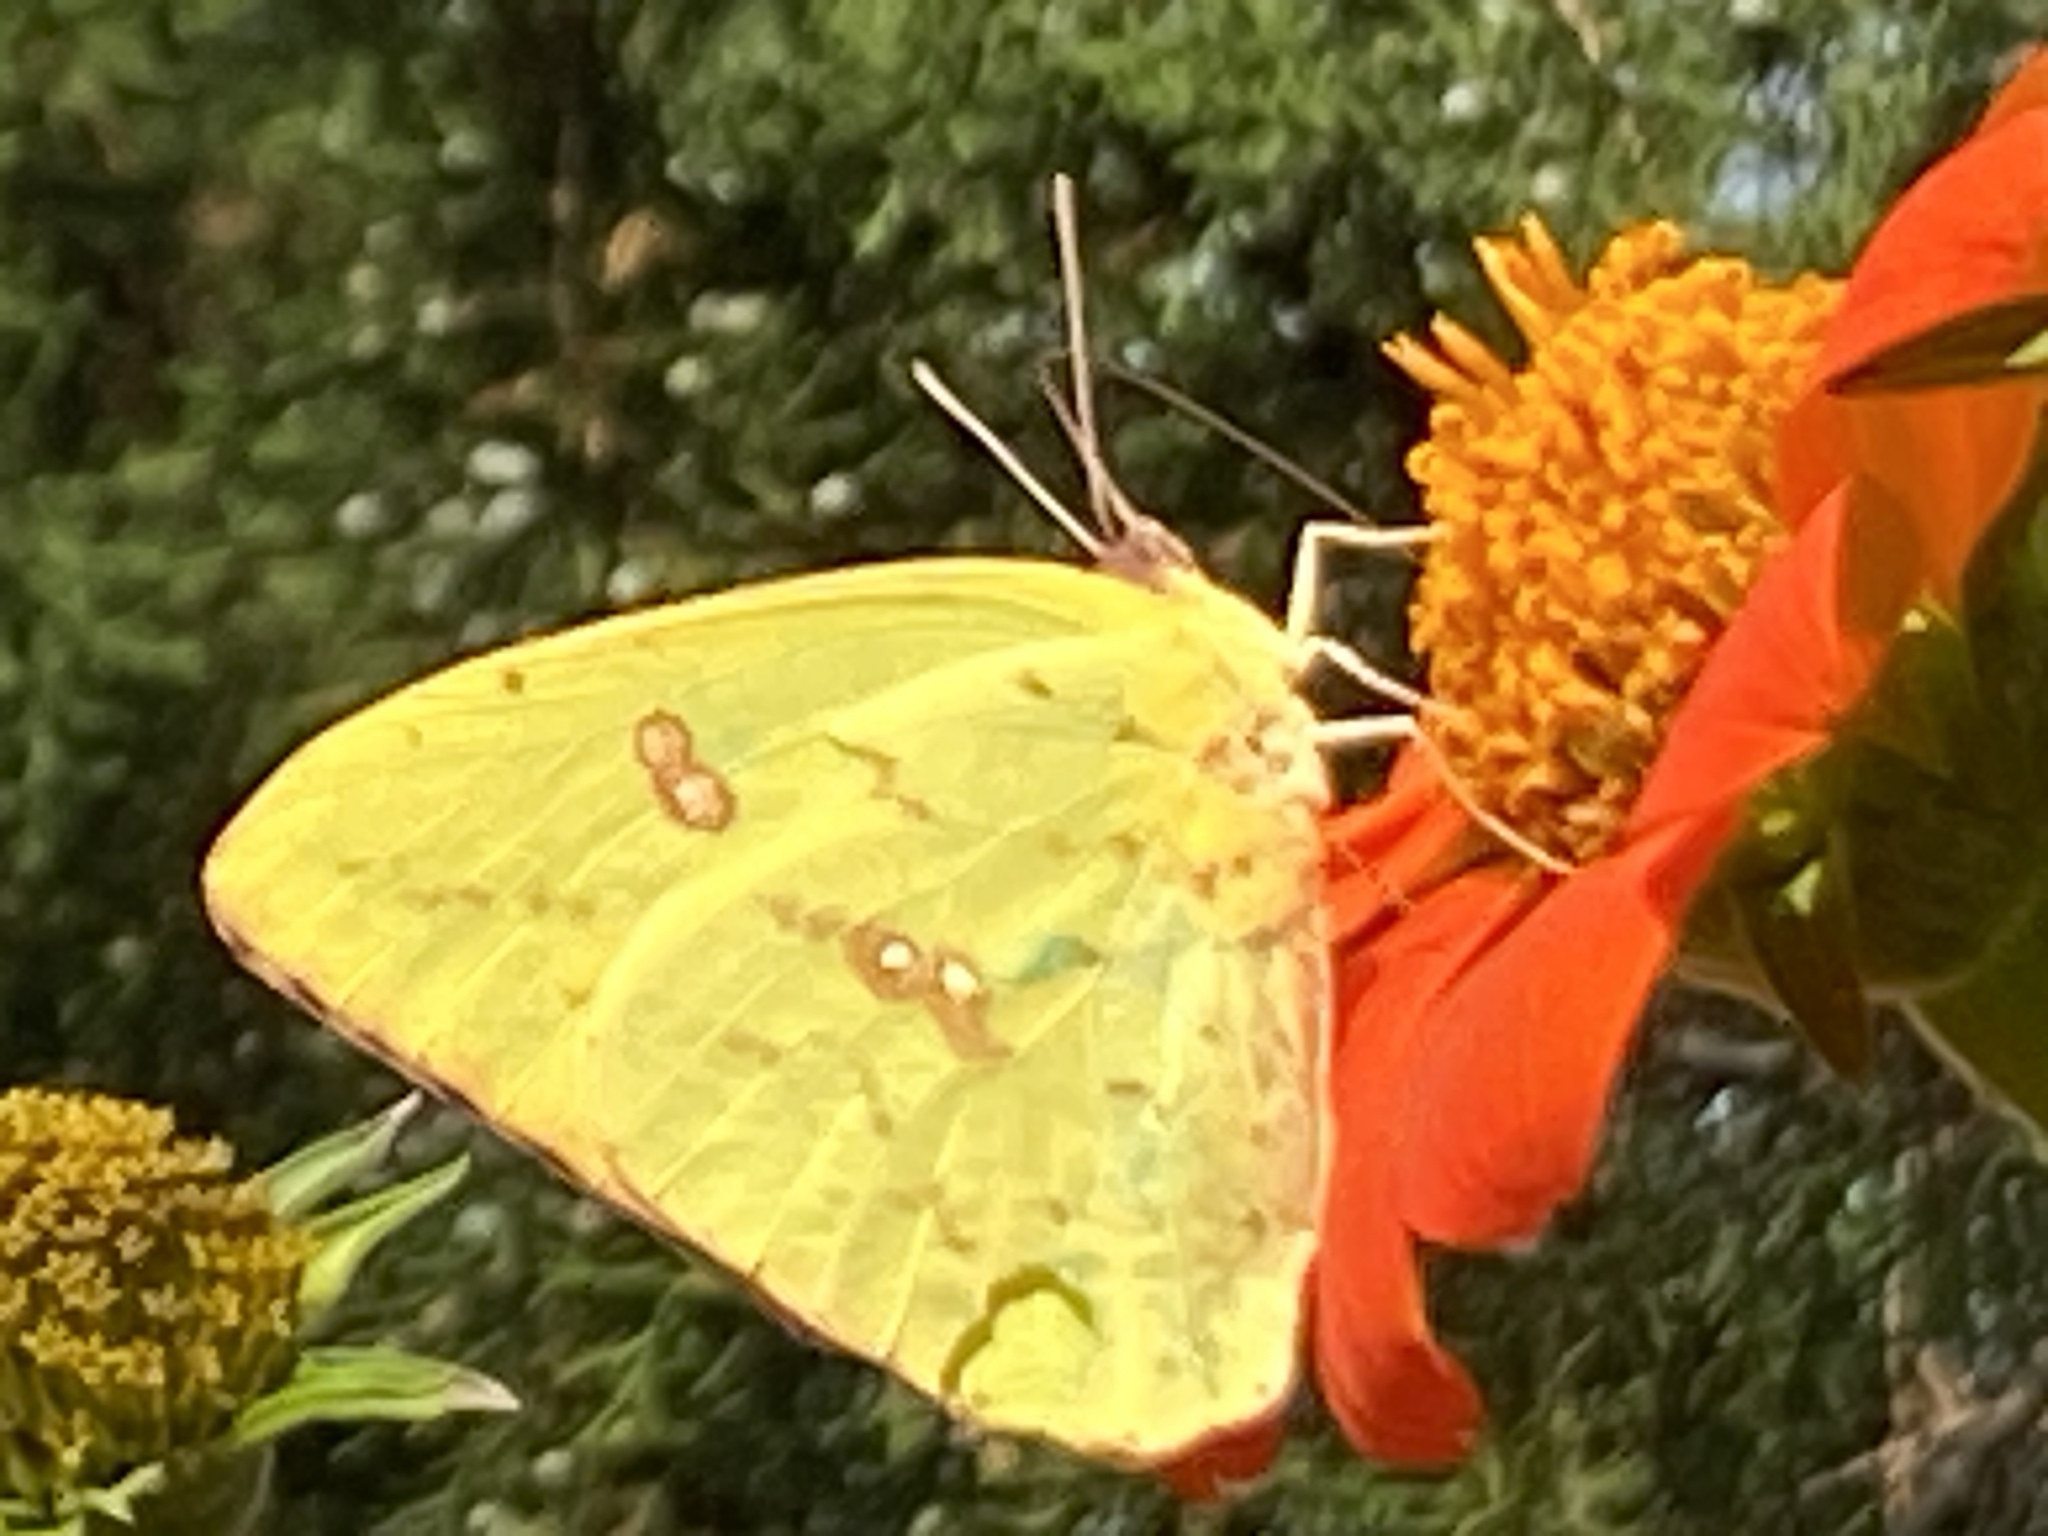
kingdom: Animalia
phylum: Arthropoda
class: Insecta
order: Lepidoptera
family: Pieridae
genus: Phoebis
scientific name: Phoebis sennae
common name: Cloudless sulphur
